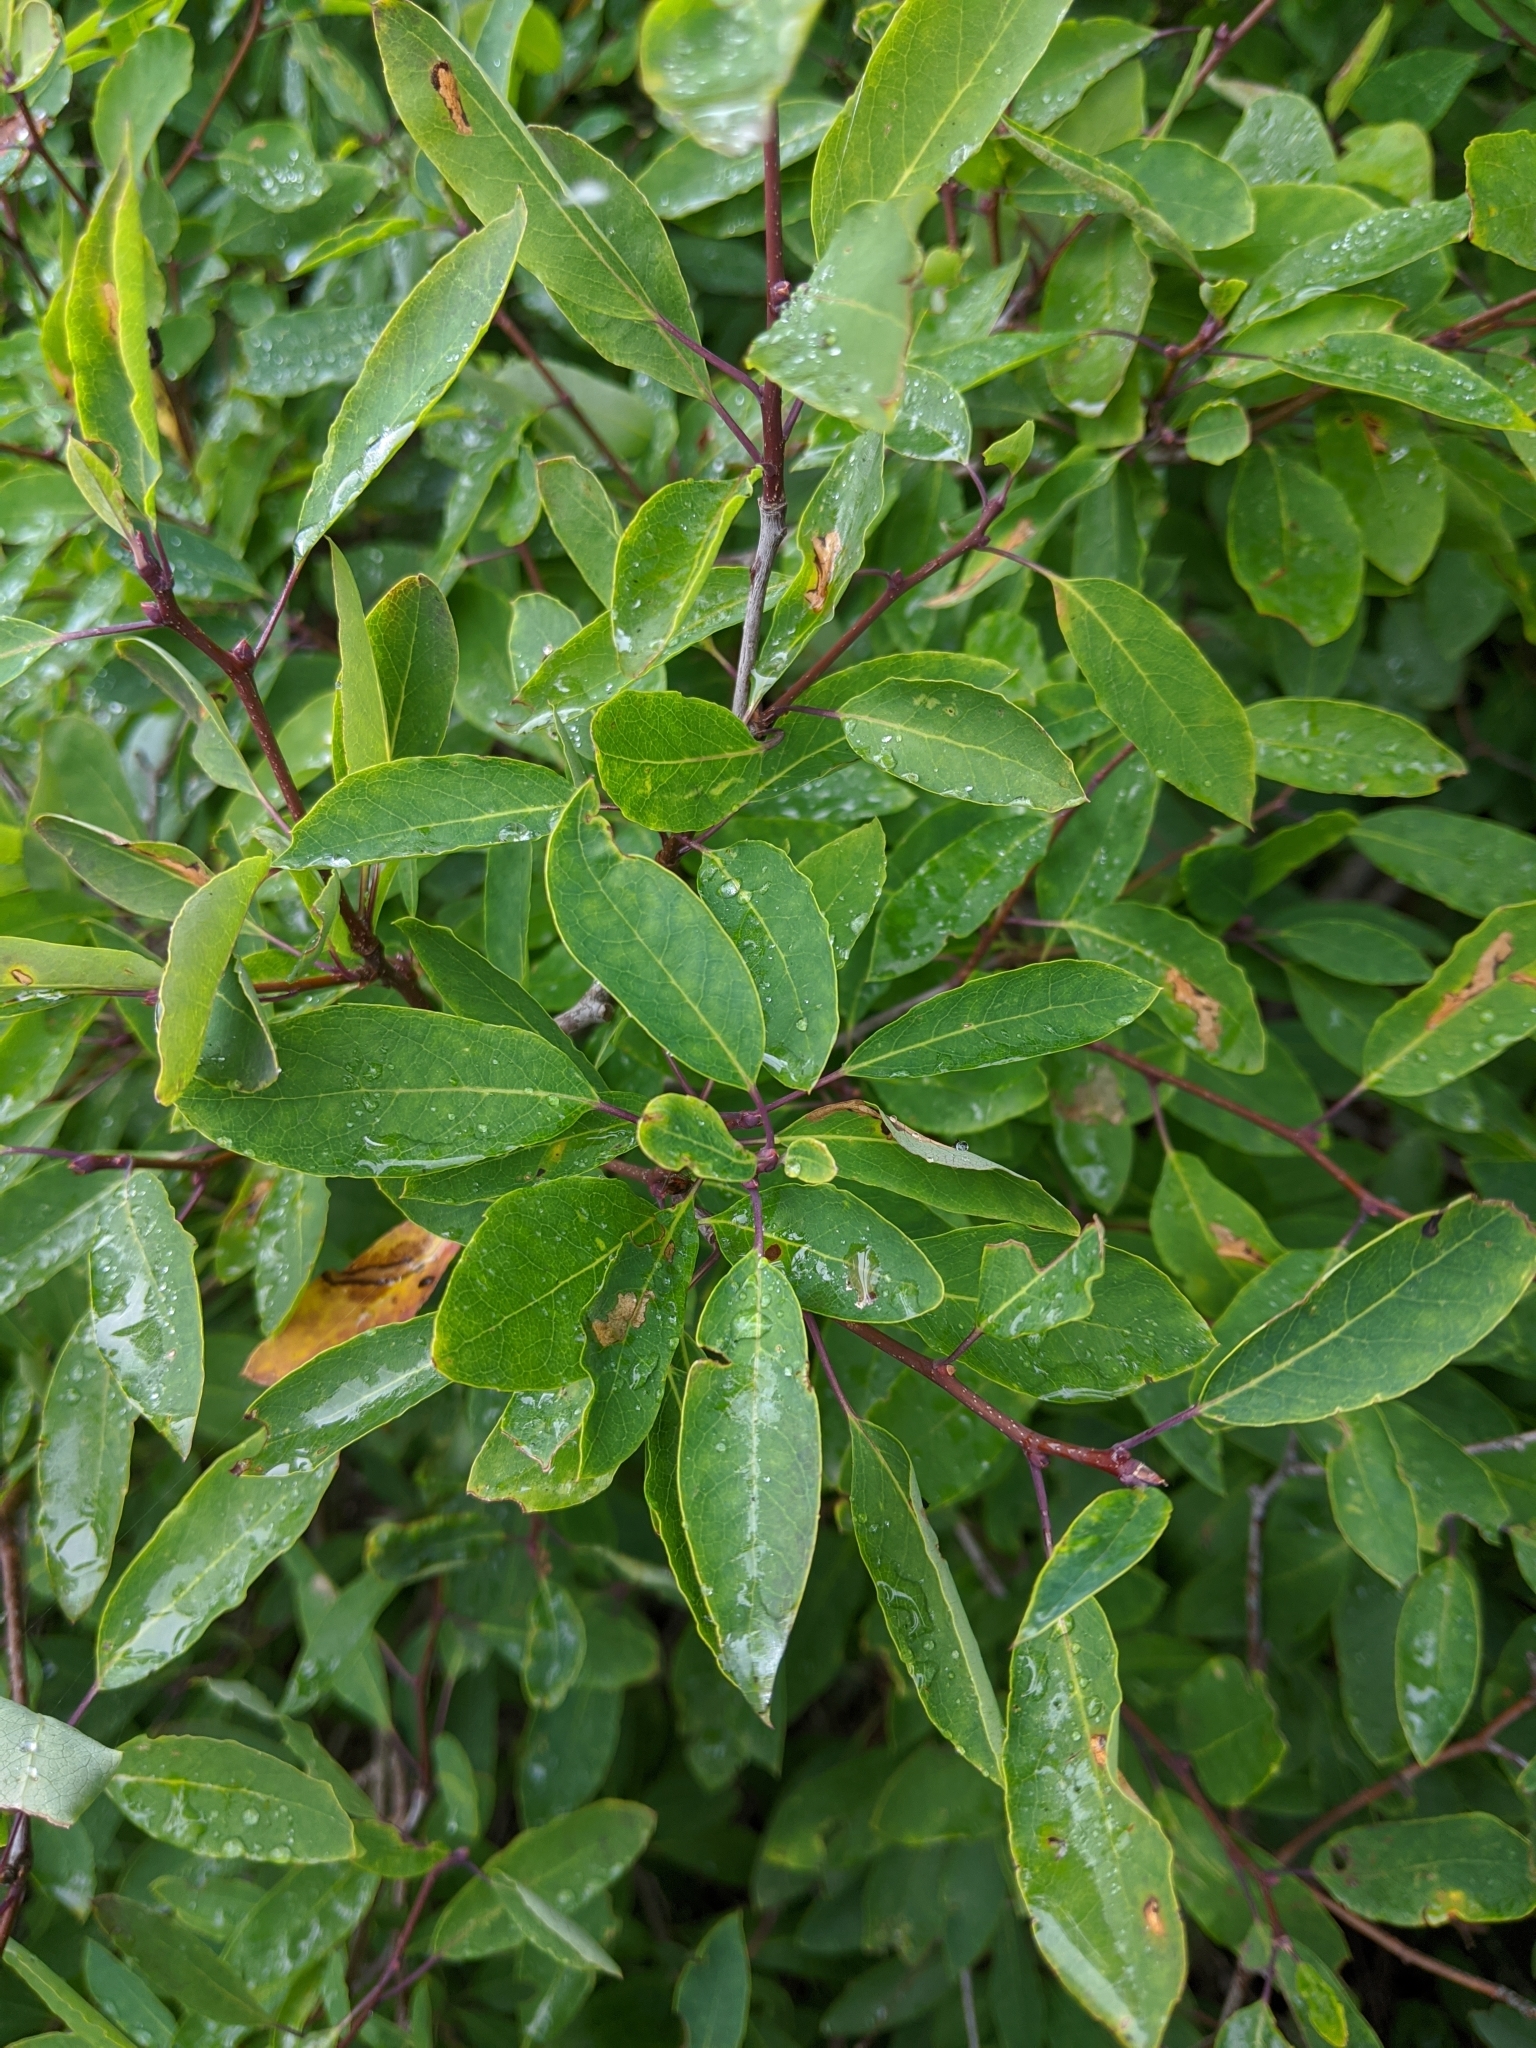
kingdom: Plantae
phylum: Tracheophyta
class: Magnoliopsida
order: Aquifoliales
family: Aquifoliaceae
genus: Ilex
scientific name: Ilex mucronata
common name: Catberry
